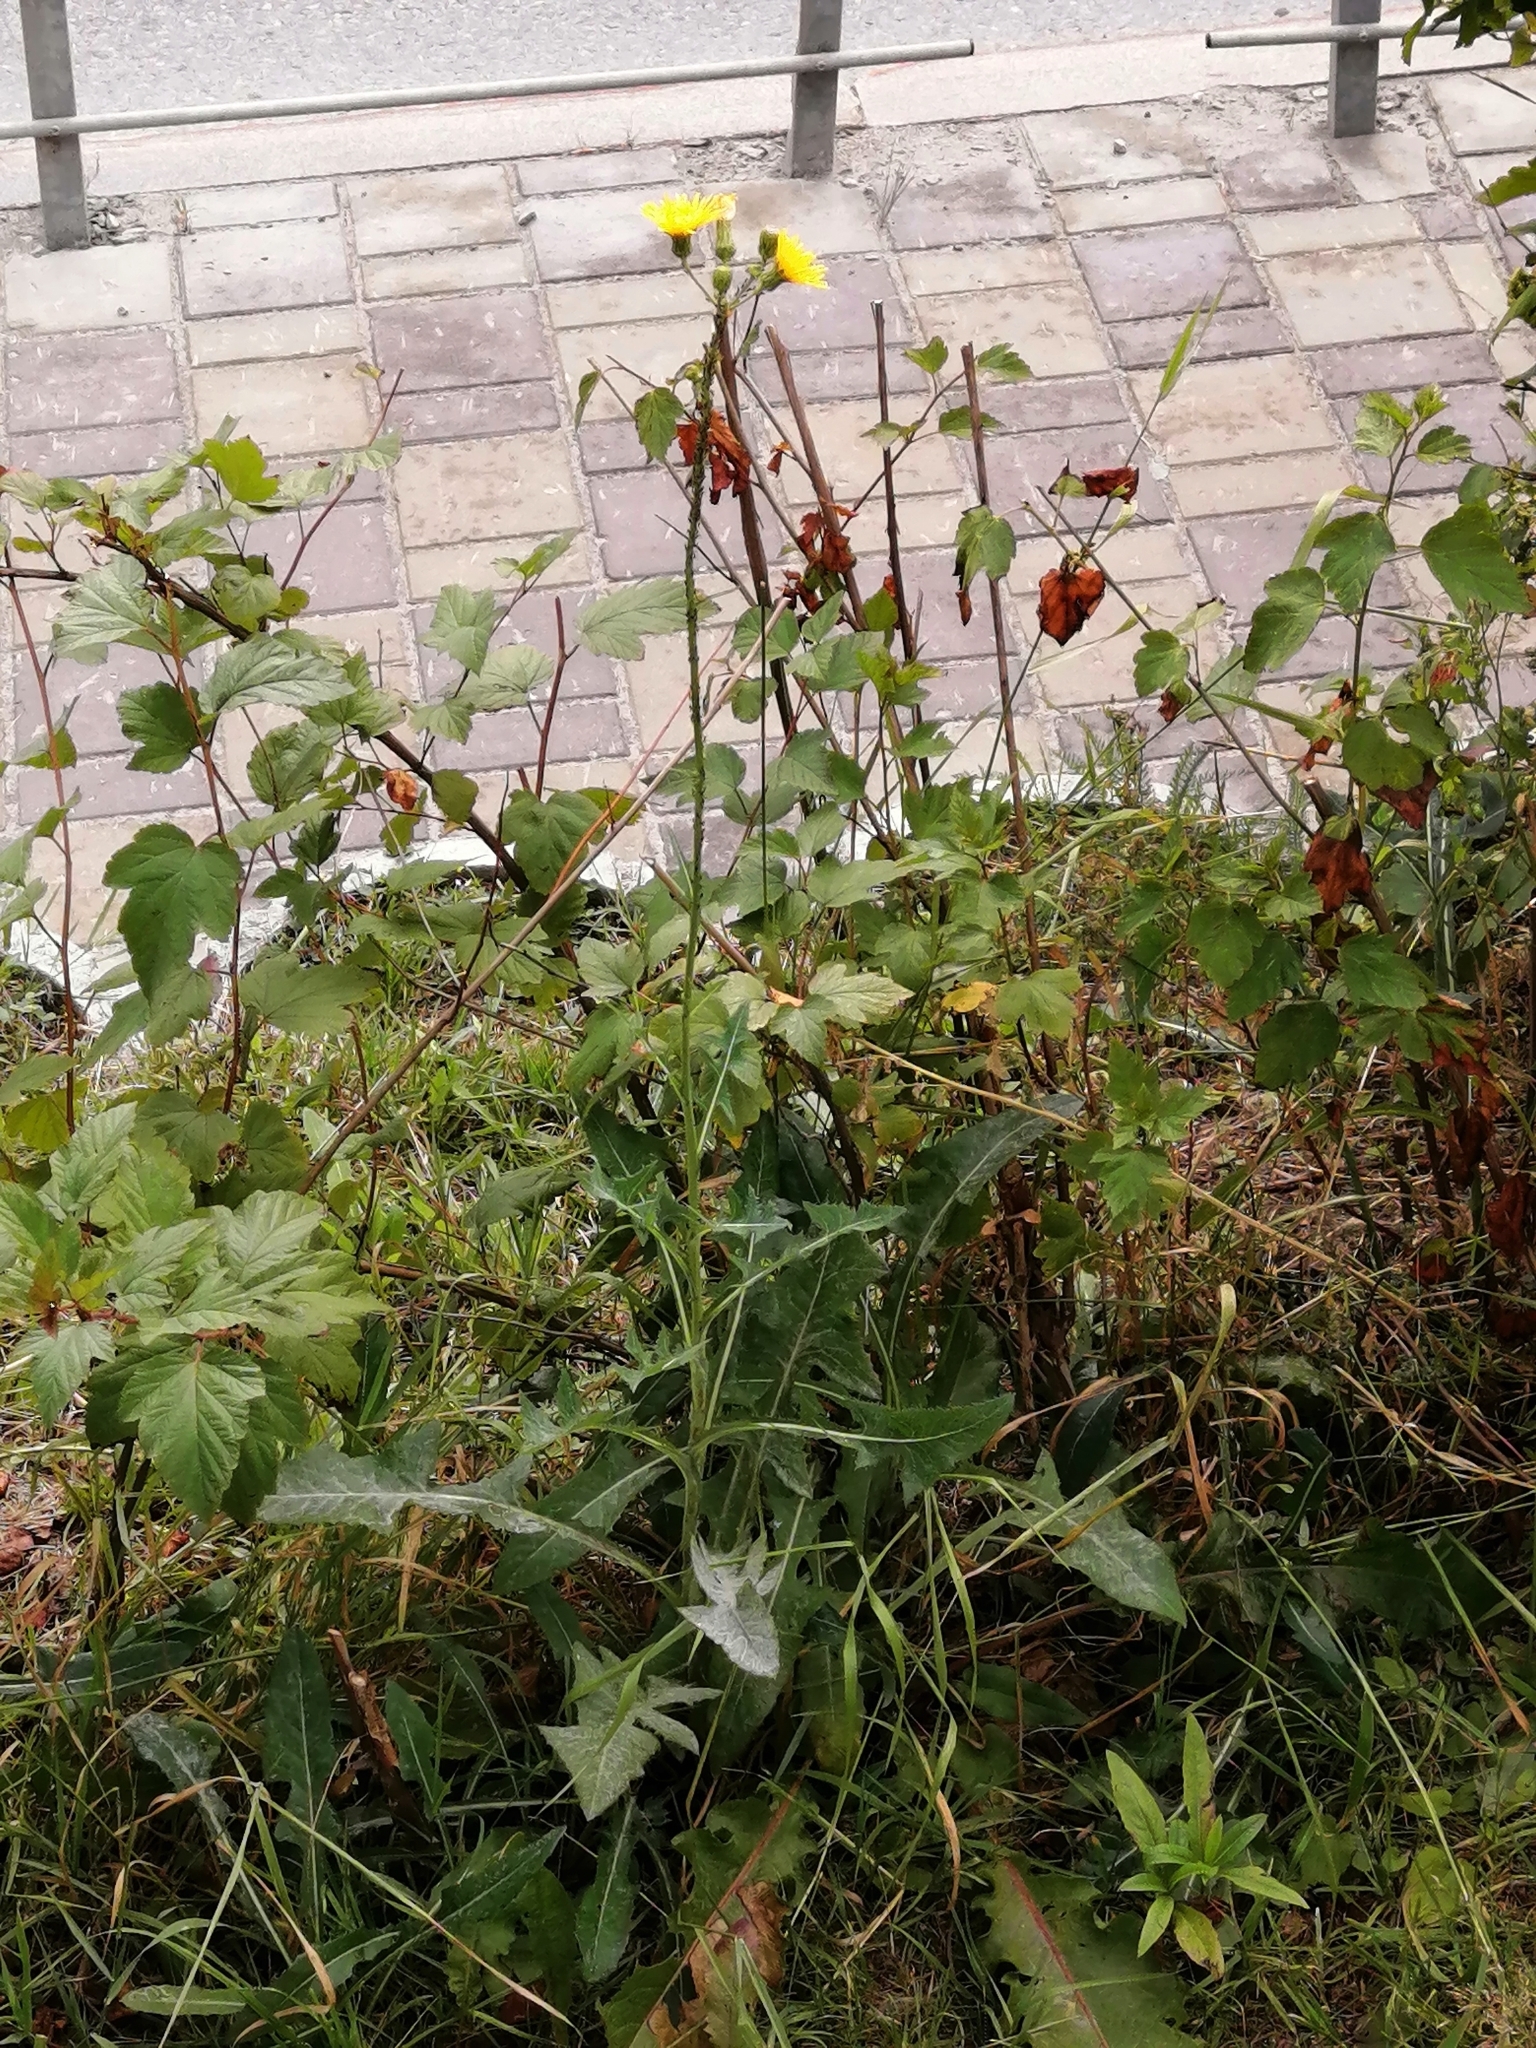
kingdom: Plantae
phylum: Tracheophyta
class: Magnoliopsida
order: Asterales
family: Asteraceae
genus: Sonchus
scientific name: Sonchus arvensis
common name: Perennial sow-thistle
